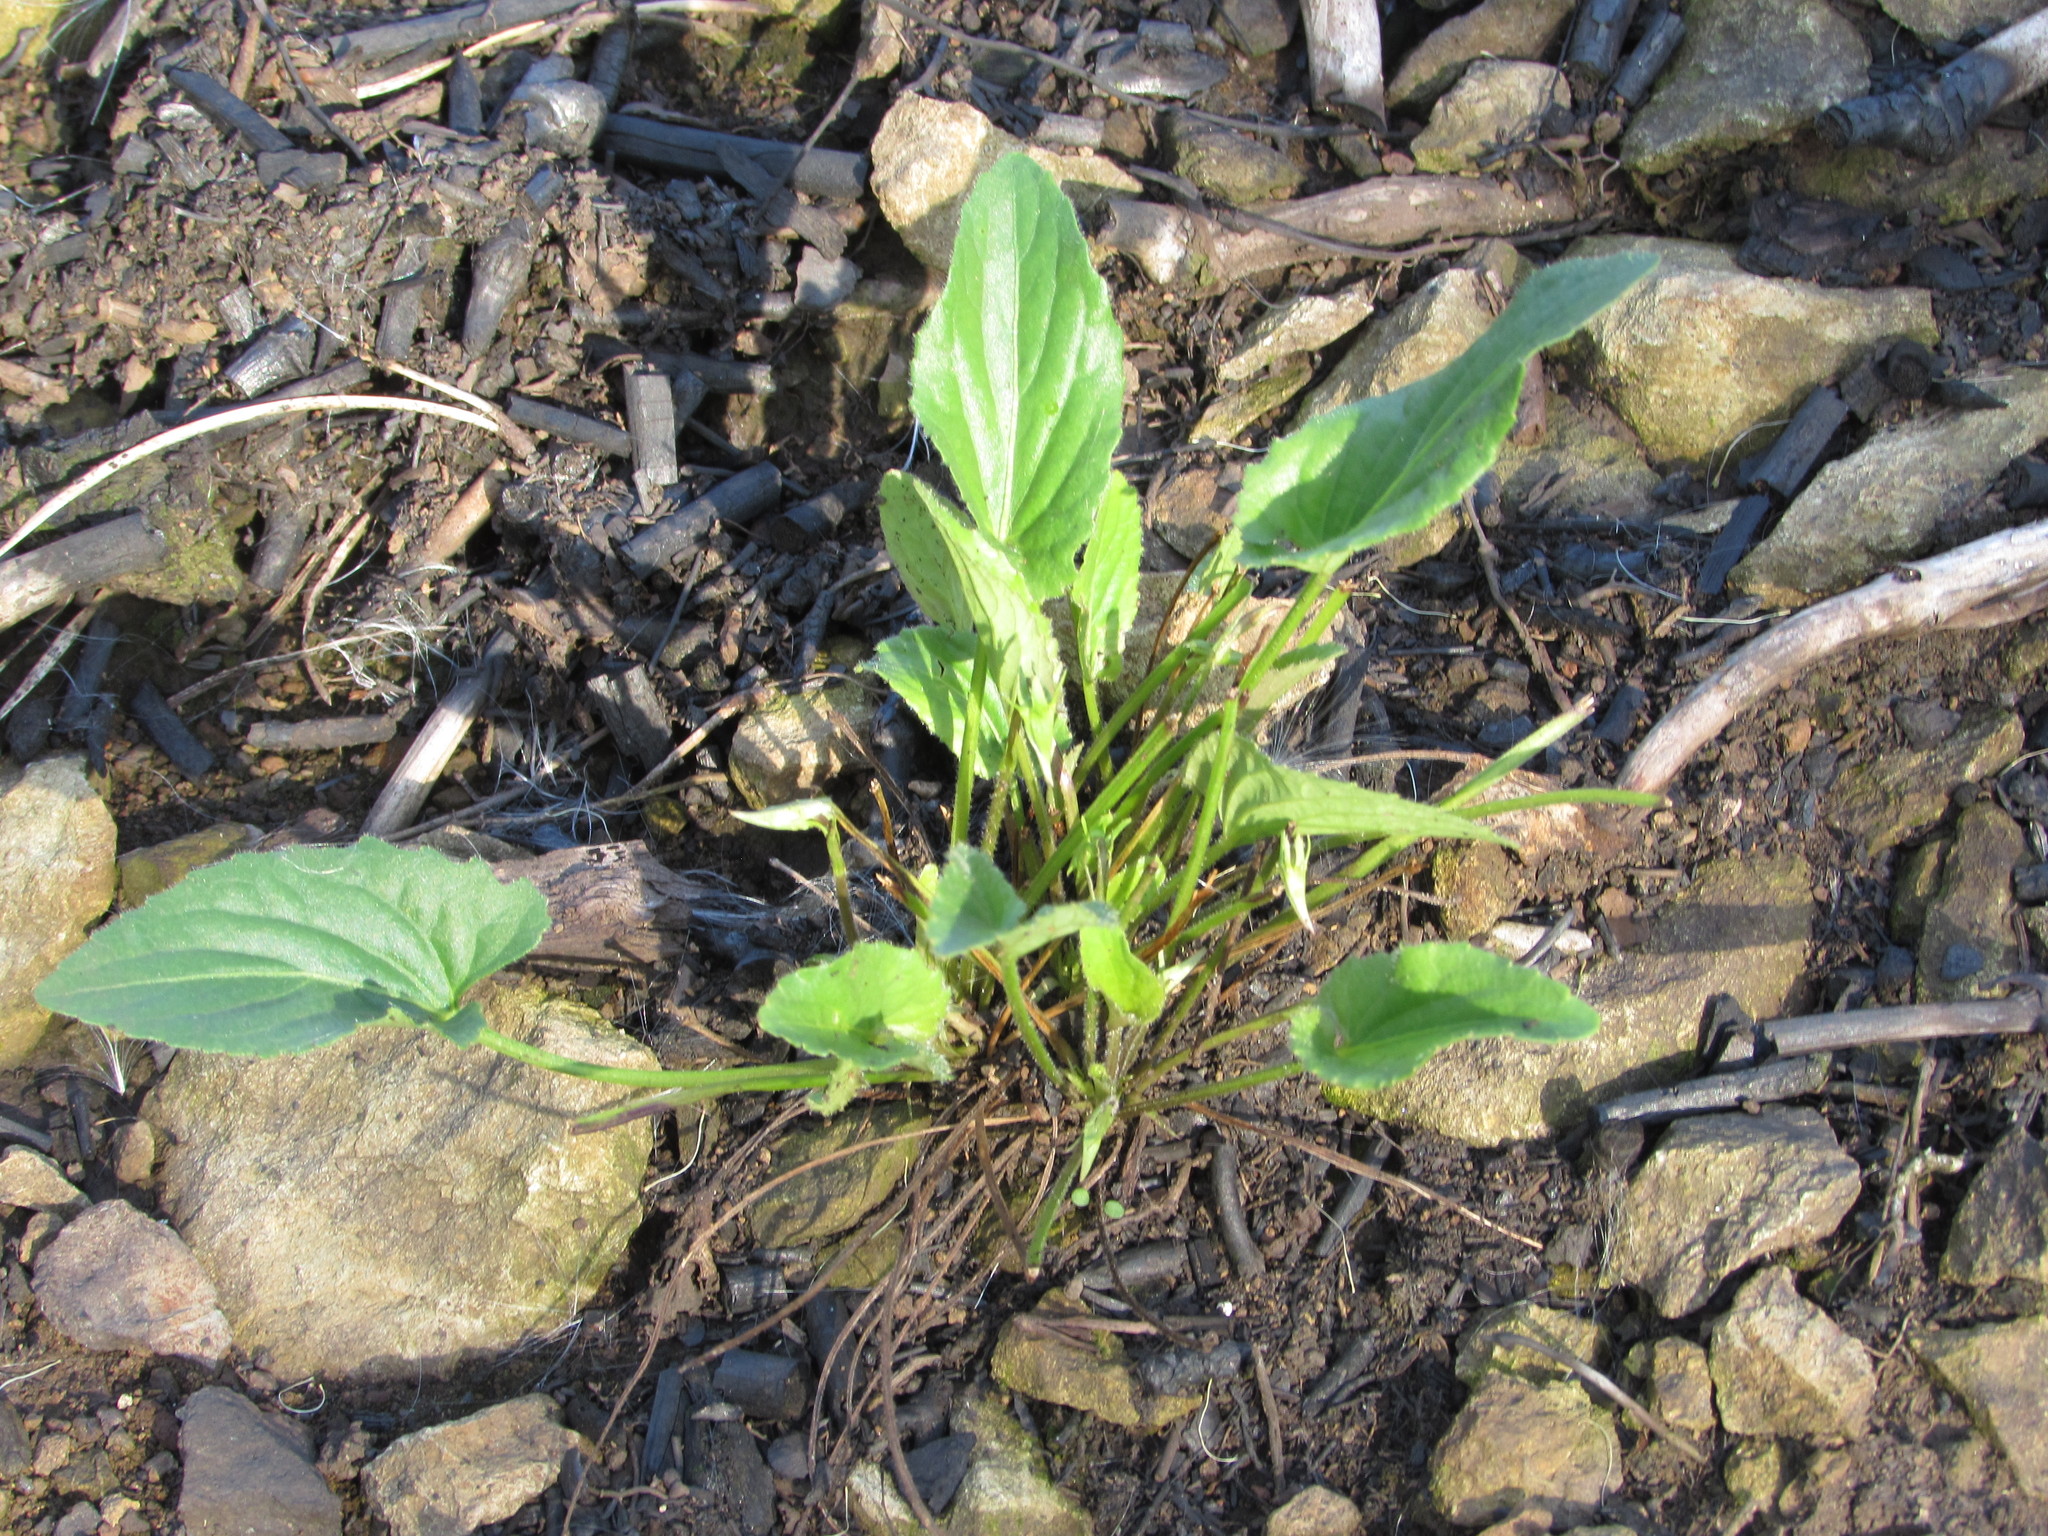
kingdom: Plantae
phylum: Tracheophyta
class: Magnoliopsida
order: Malpighiales
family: Violaceae
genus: Viola
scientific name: Viola sagittata
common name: Arrowhead violet
